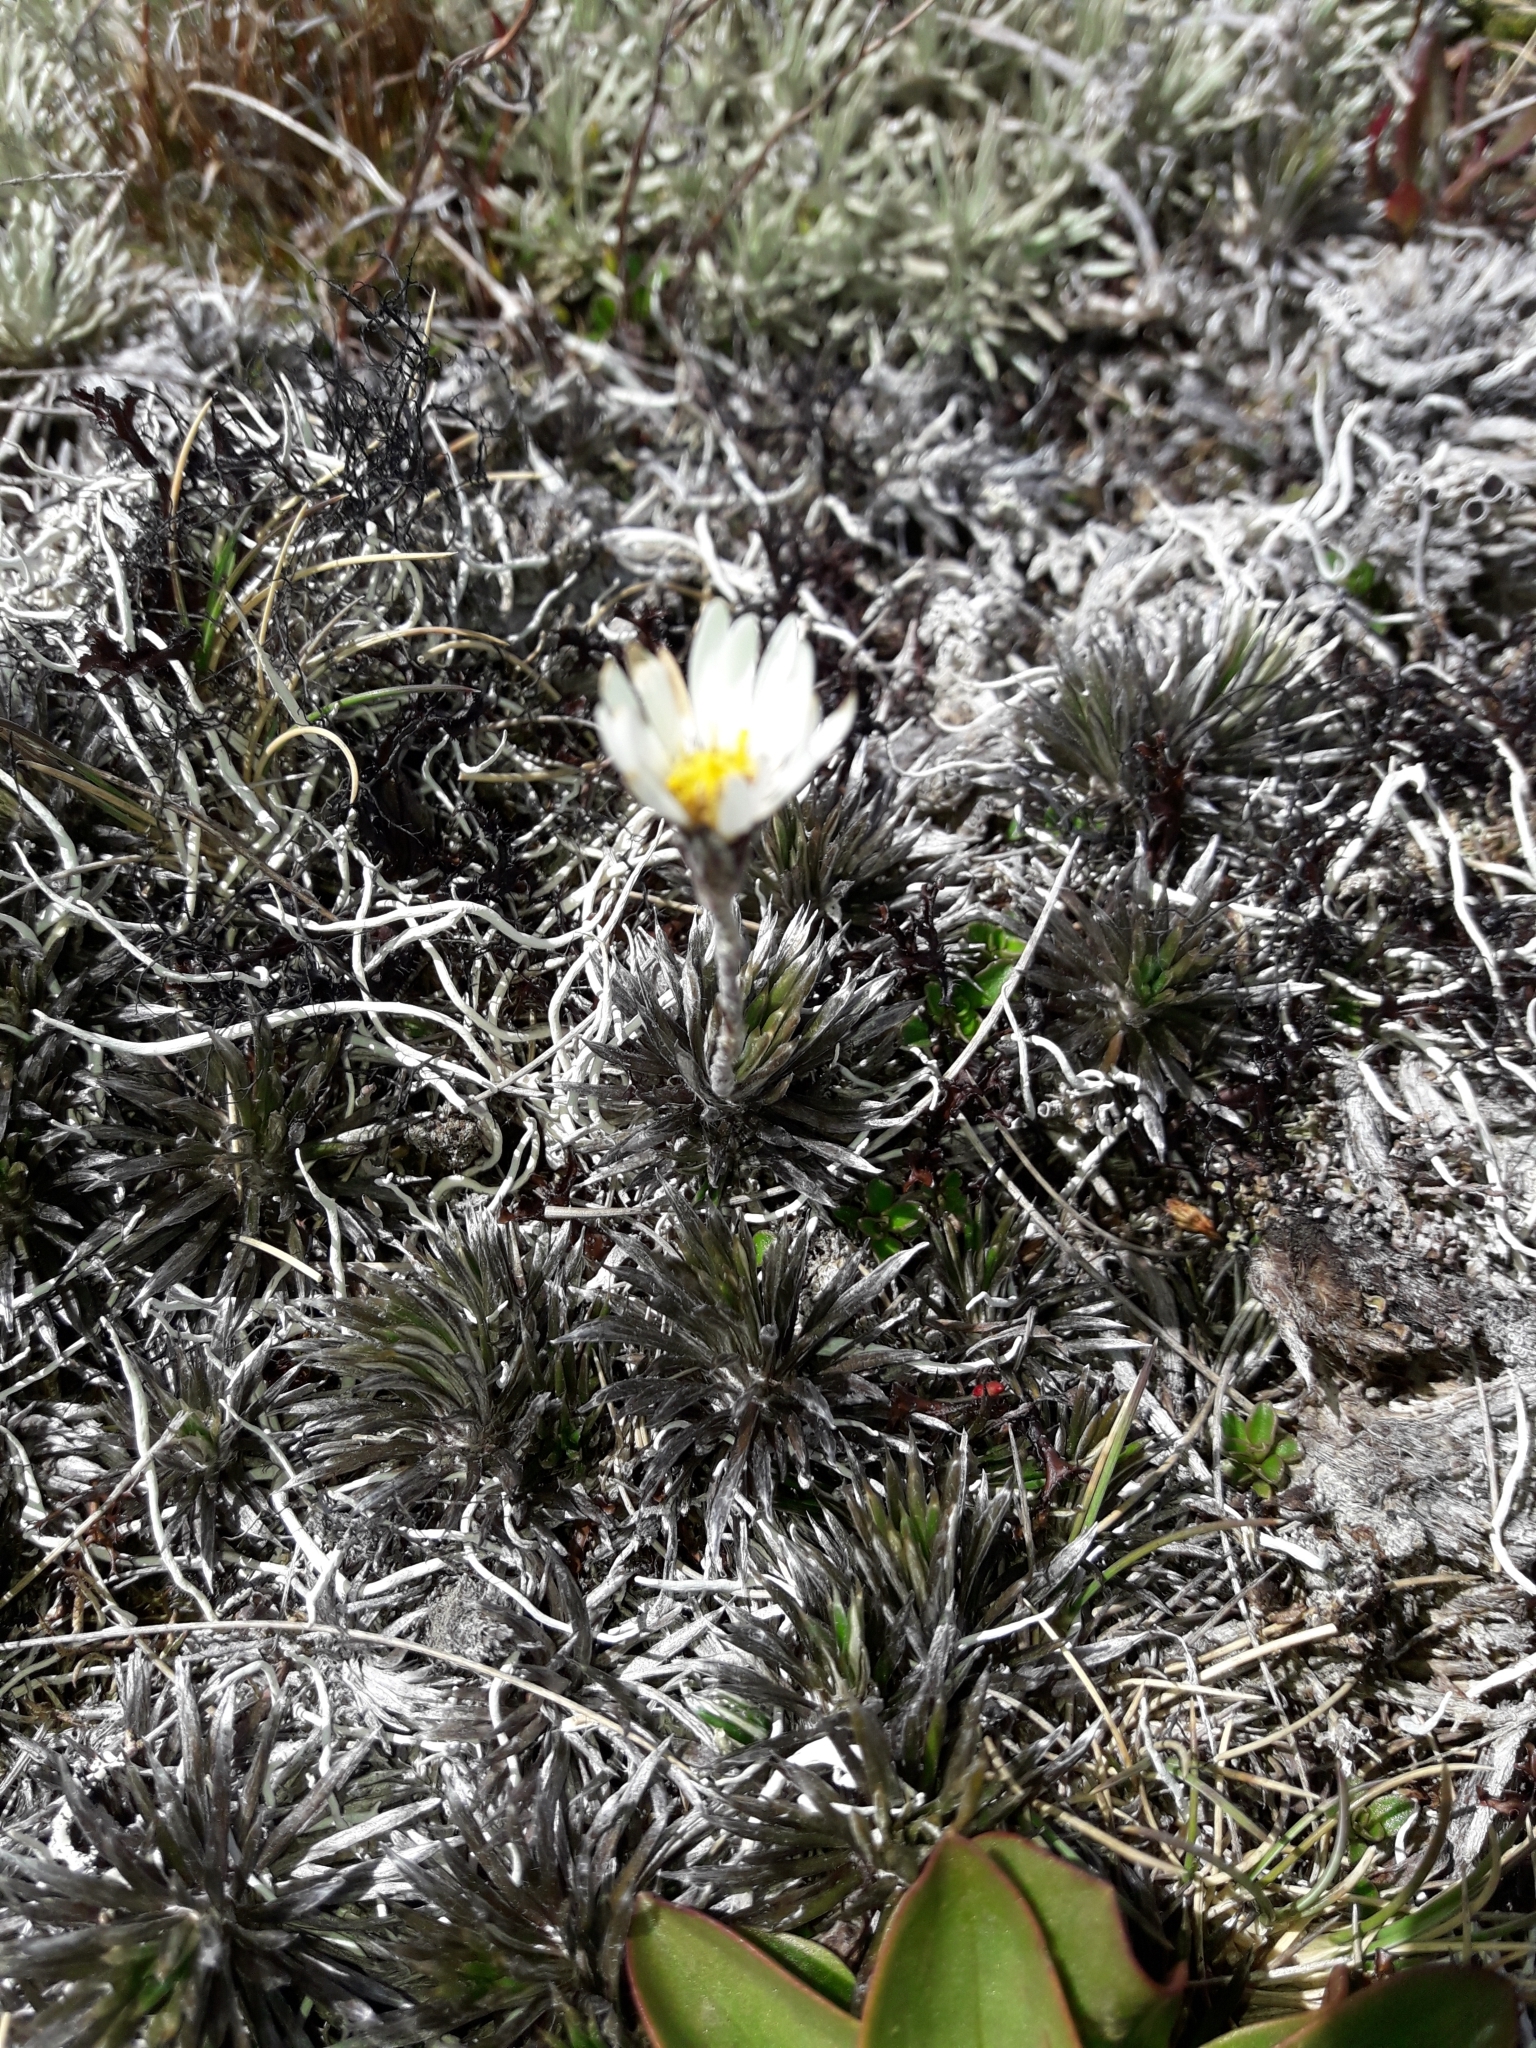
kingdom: Plantae
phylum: Tracheophyta
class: Magnoliopsida
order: Asterales
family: Asteraceae
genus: Celmisia
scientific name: Celmisia laricifolia
